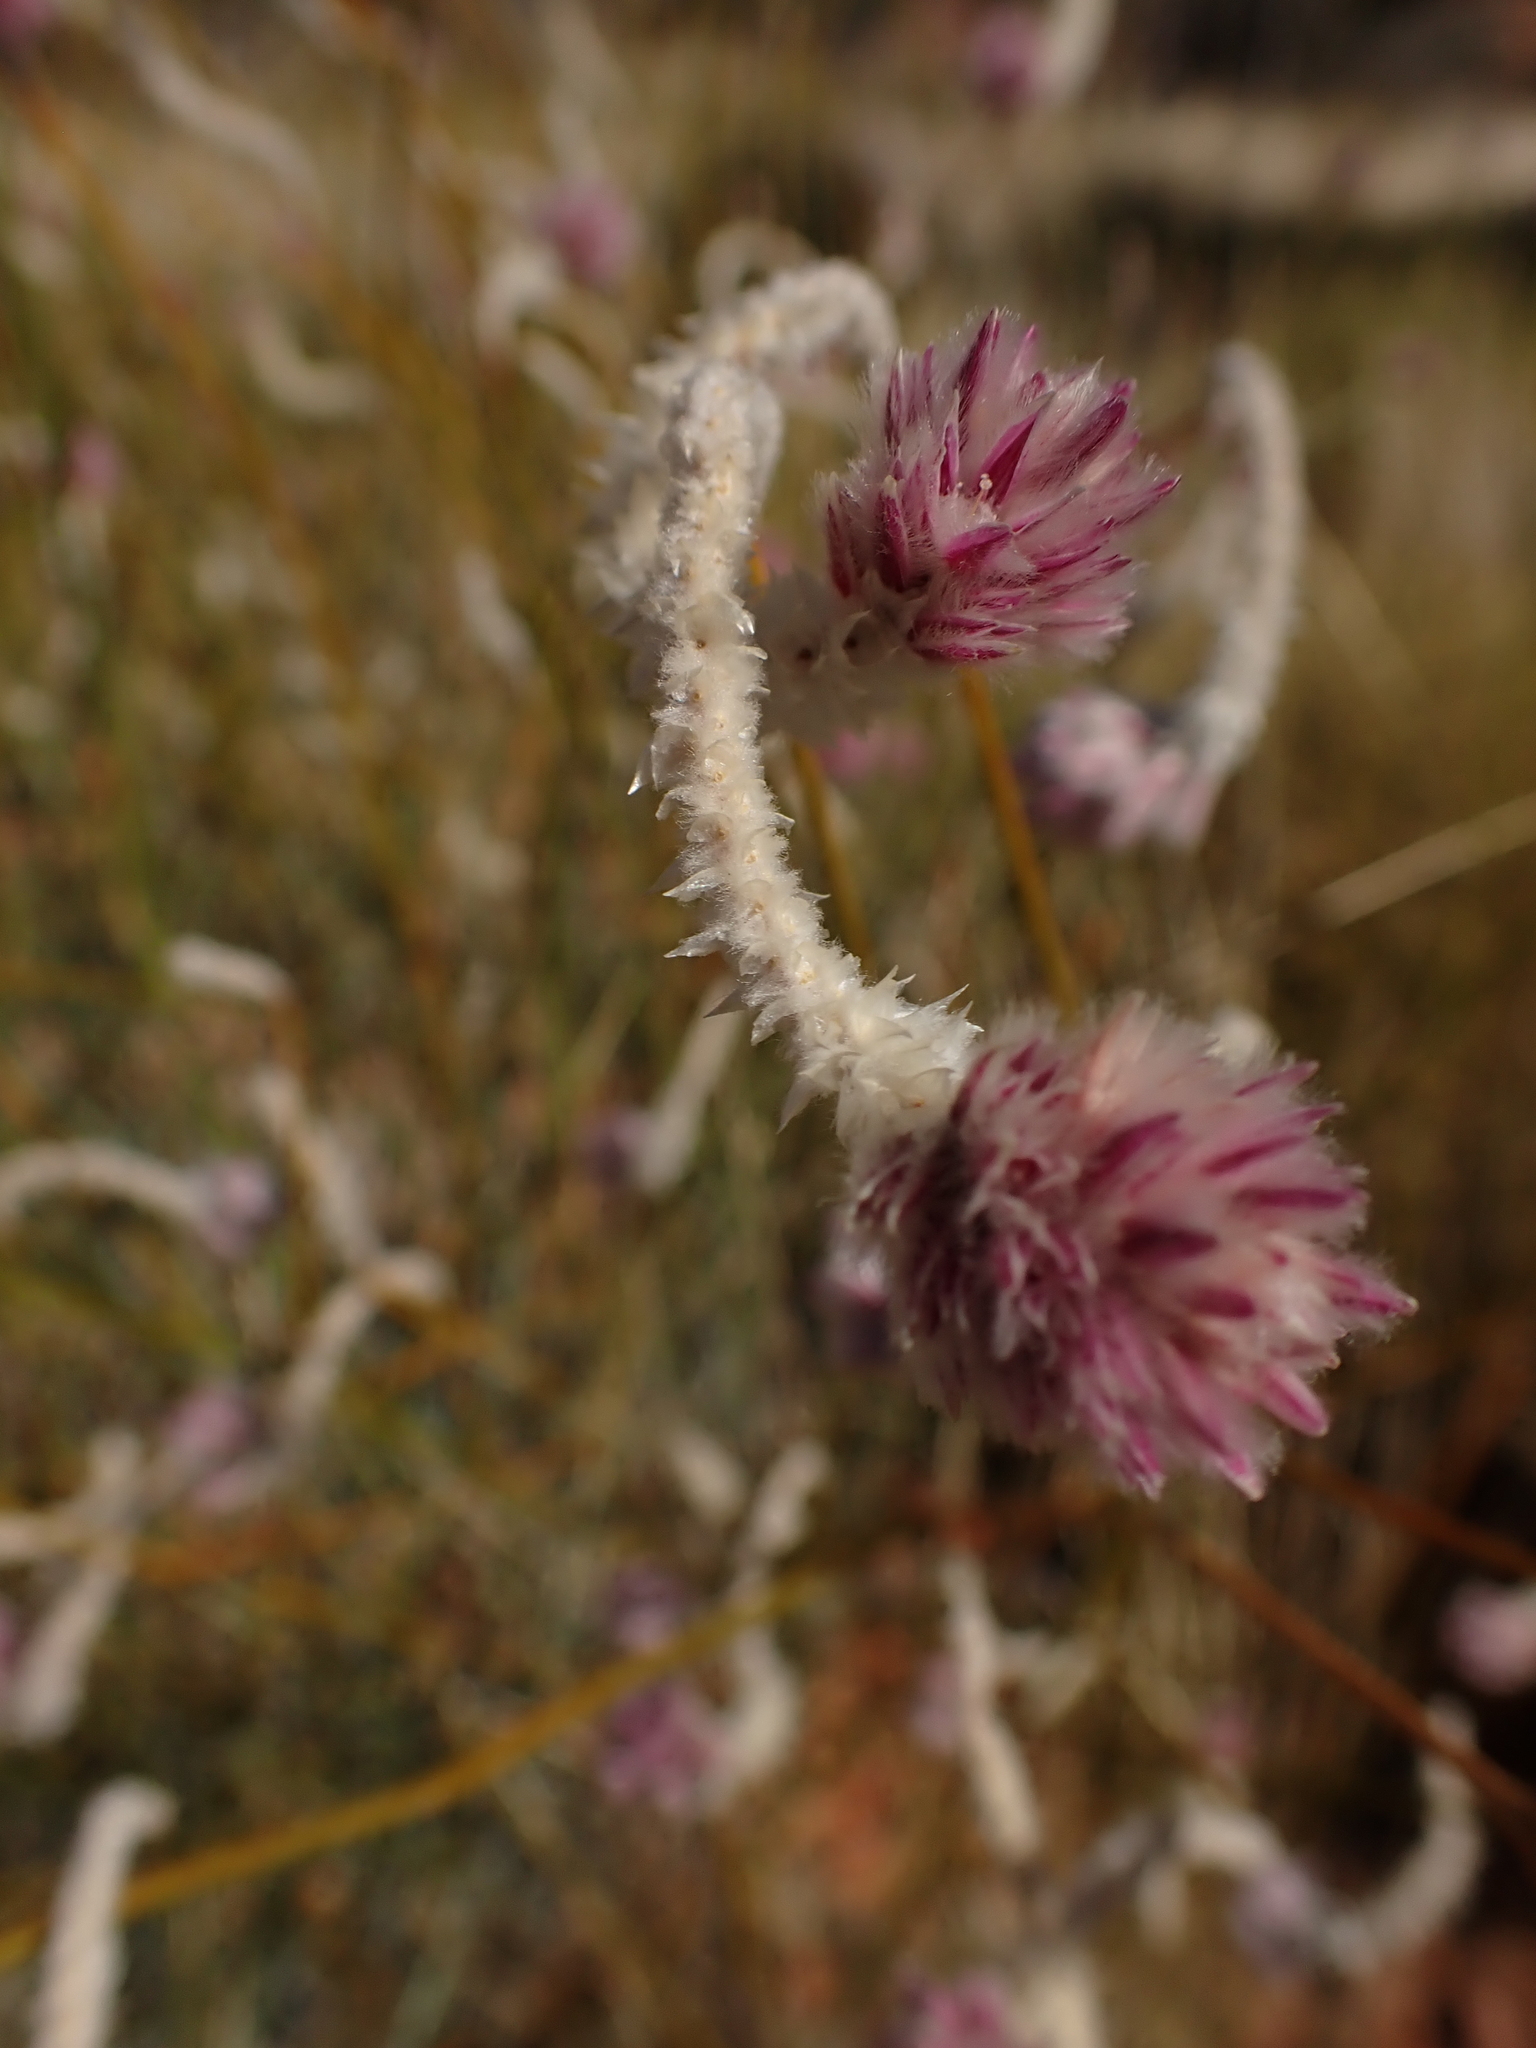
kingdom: Plantae
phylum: Tracheophyta
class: Magnoliopsida
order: Caryophyllales
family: Amaranthaceae
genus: Ptilotus
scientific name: Ptilotus schwartzii
